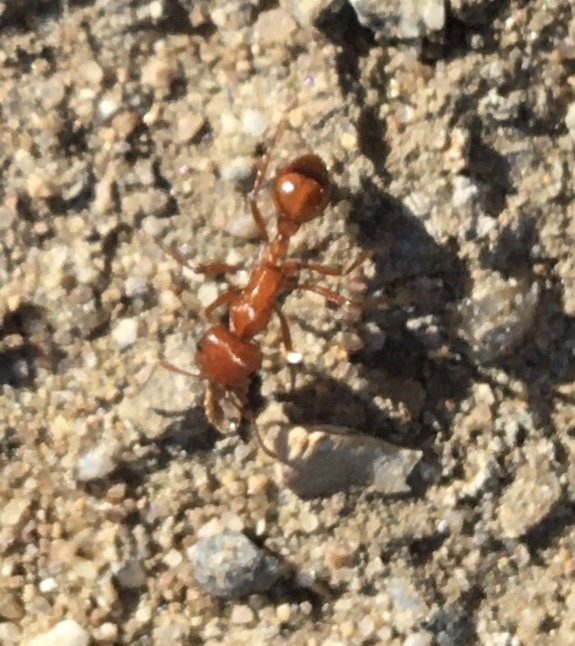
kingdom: Animalia
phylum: Arthropoda
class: Insecta
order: Hymenoptera
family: Formicidae
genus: Pogonomyrmex
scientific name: Pogonomyrmex californicus
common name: California harvester ant
